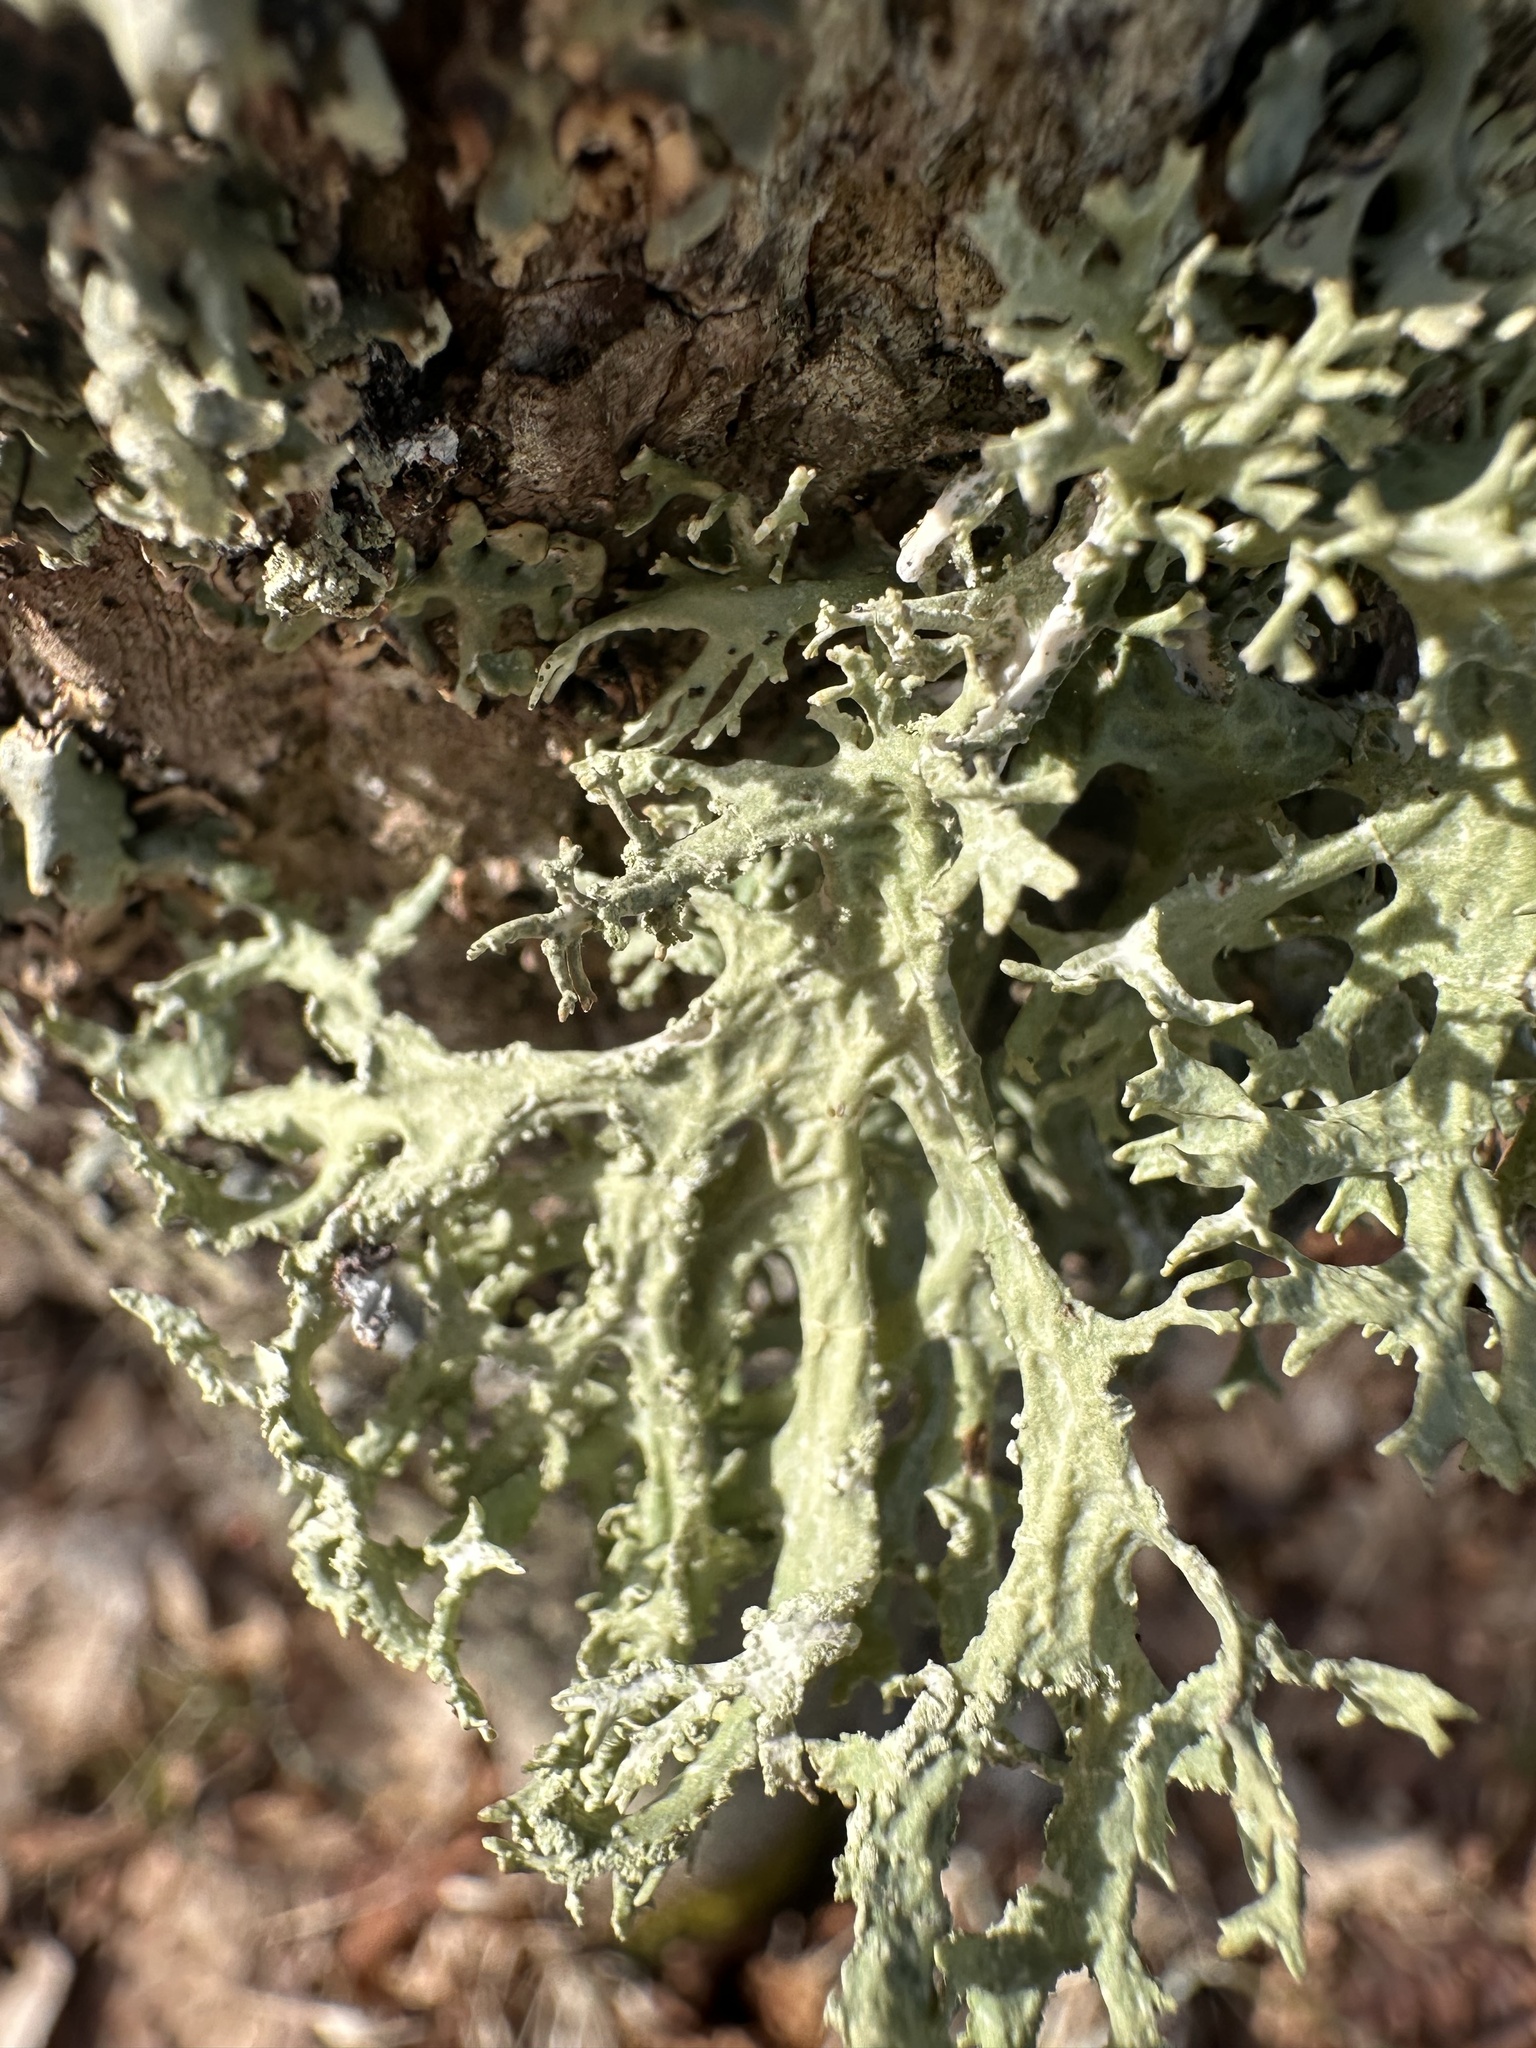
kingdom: Fungi
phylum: Ascomycota
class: Lecanoromycetes
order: Lecanorales
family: Parmeliaceae
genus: Evernia
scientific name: Evernia prunastri
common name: Oak moss
